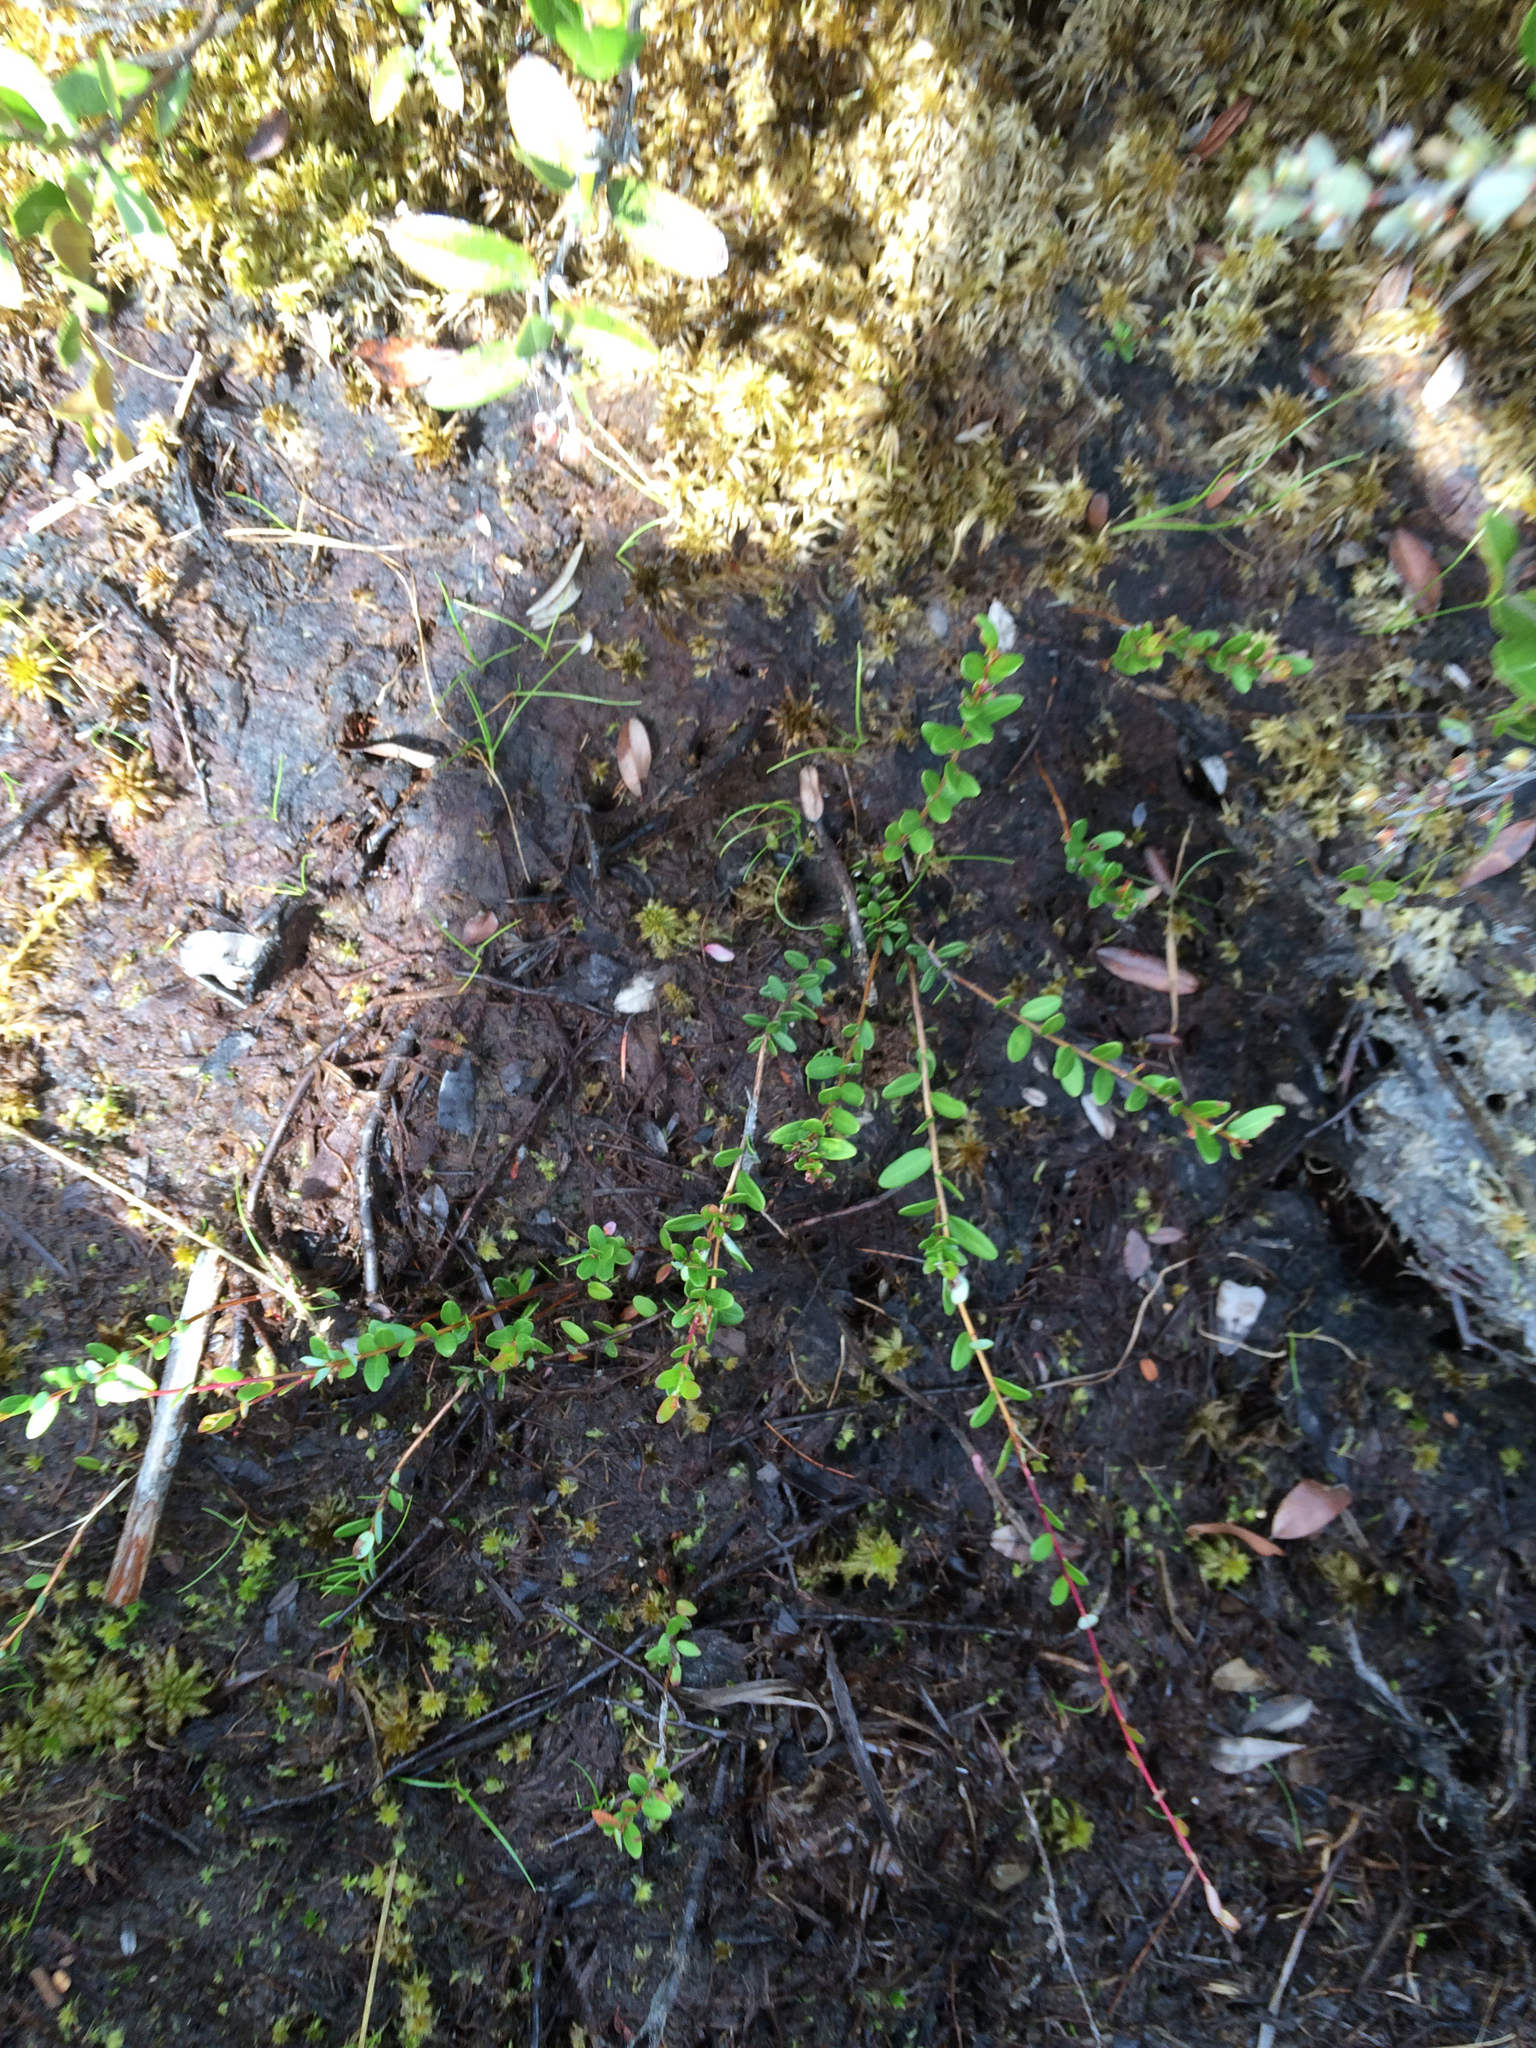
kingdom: Plantae
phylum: Tracheophyta
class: Magnoliopsida
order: Ericales
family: Ericaceae
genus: Vaccinium
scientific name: Vaccinium macrocarpon
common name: American cranberry
